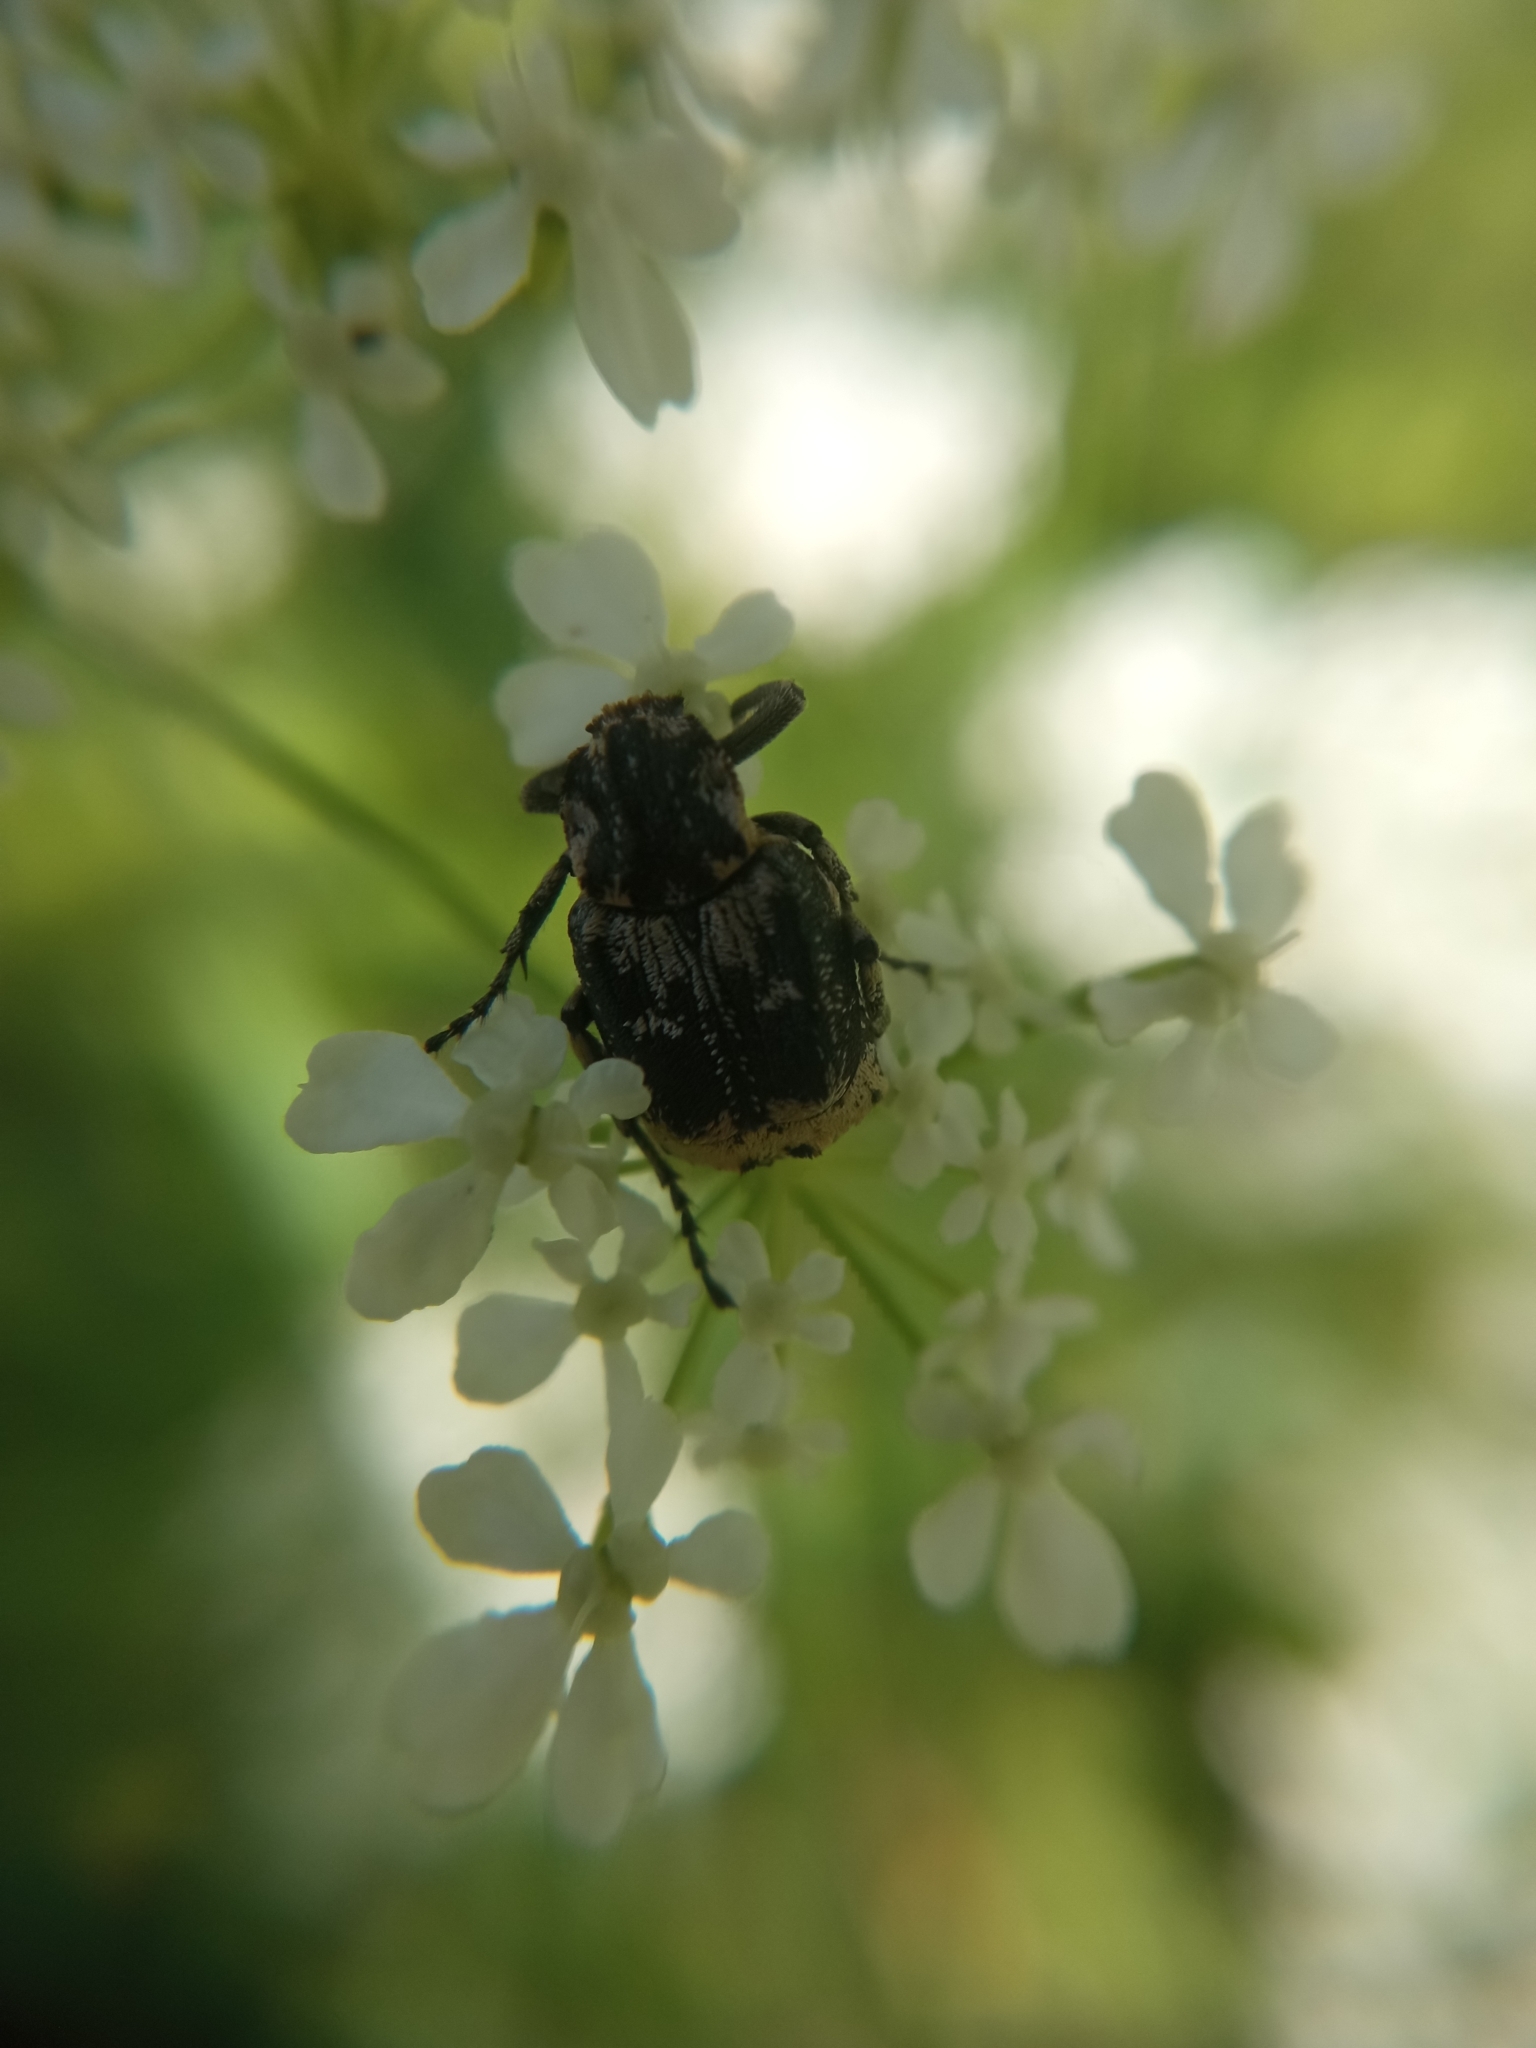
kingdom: Animalia
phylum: Arthropoda
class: Insecta
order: Coleoptera
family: Scarabaeidae
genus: Valgus
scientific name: Valgus hemipterus
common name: Bug flower chafer
